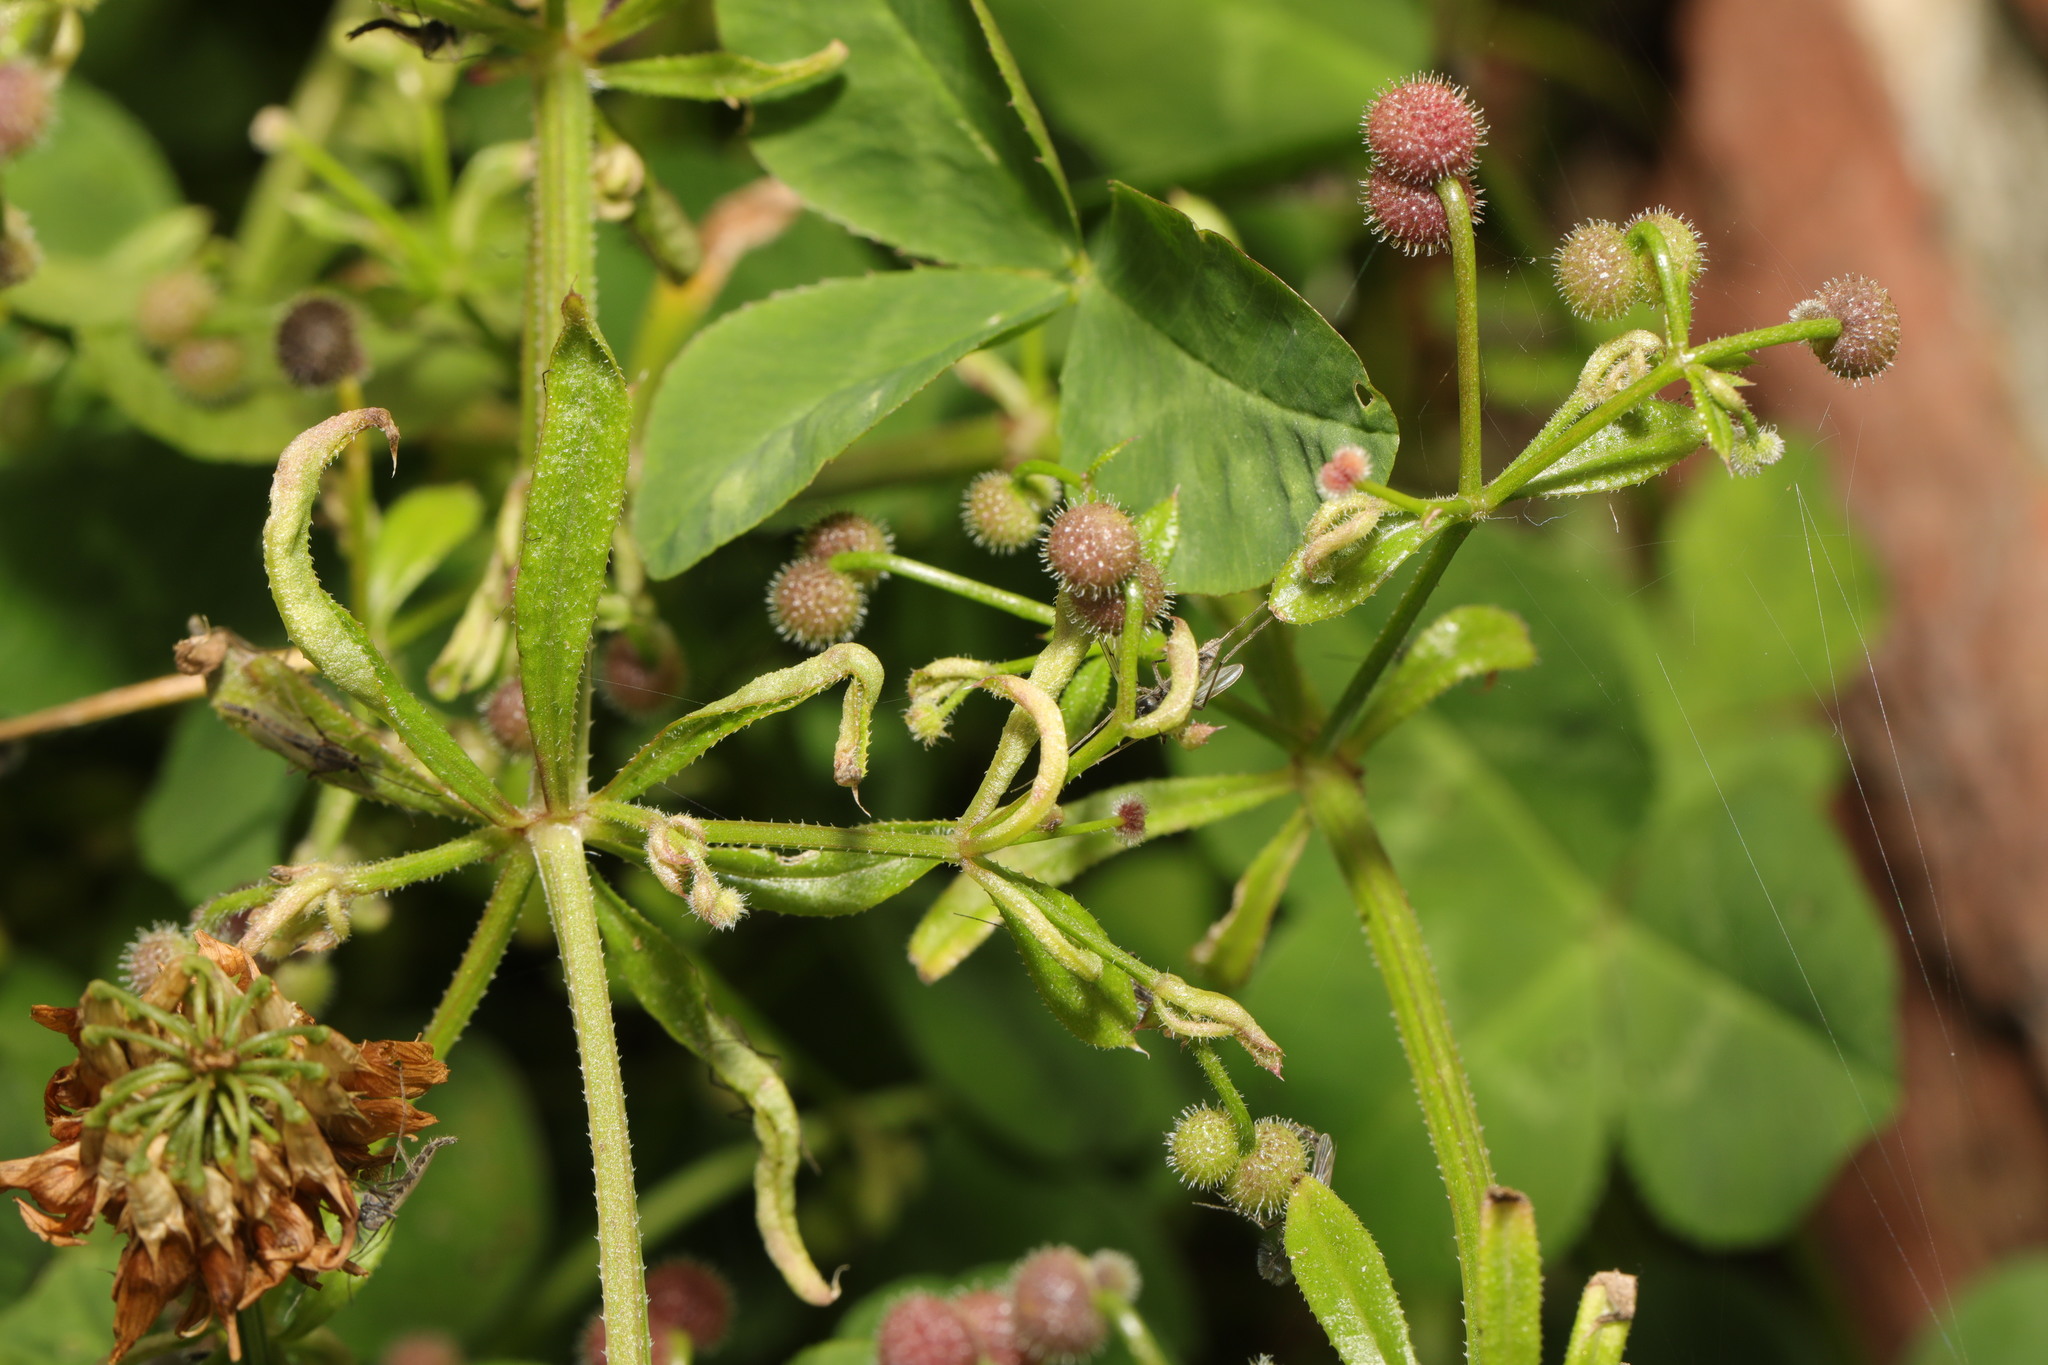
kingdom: Plantae
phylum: Tracheophyta
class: Magnoliopsida
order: Gentianales
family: Rubiaceae
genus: Galium
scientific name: Galium aparine
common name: Cleavers
